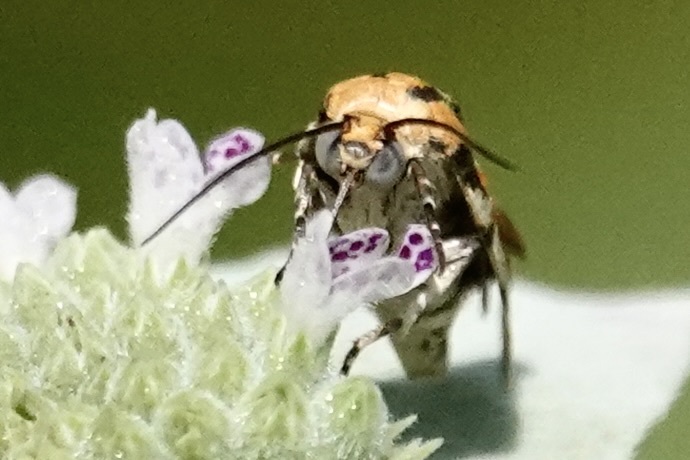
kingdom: Animalia
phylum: Arthropoda
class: Insecta
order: Lepidoptera
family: Noctuidae
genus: Acontia
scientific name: Acontia leo
